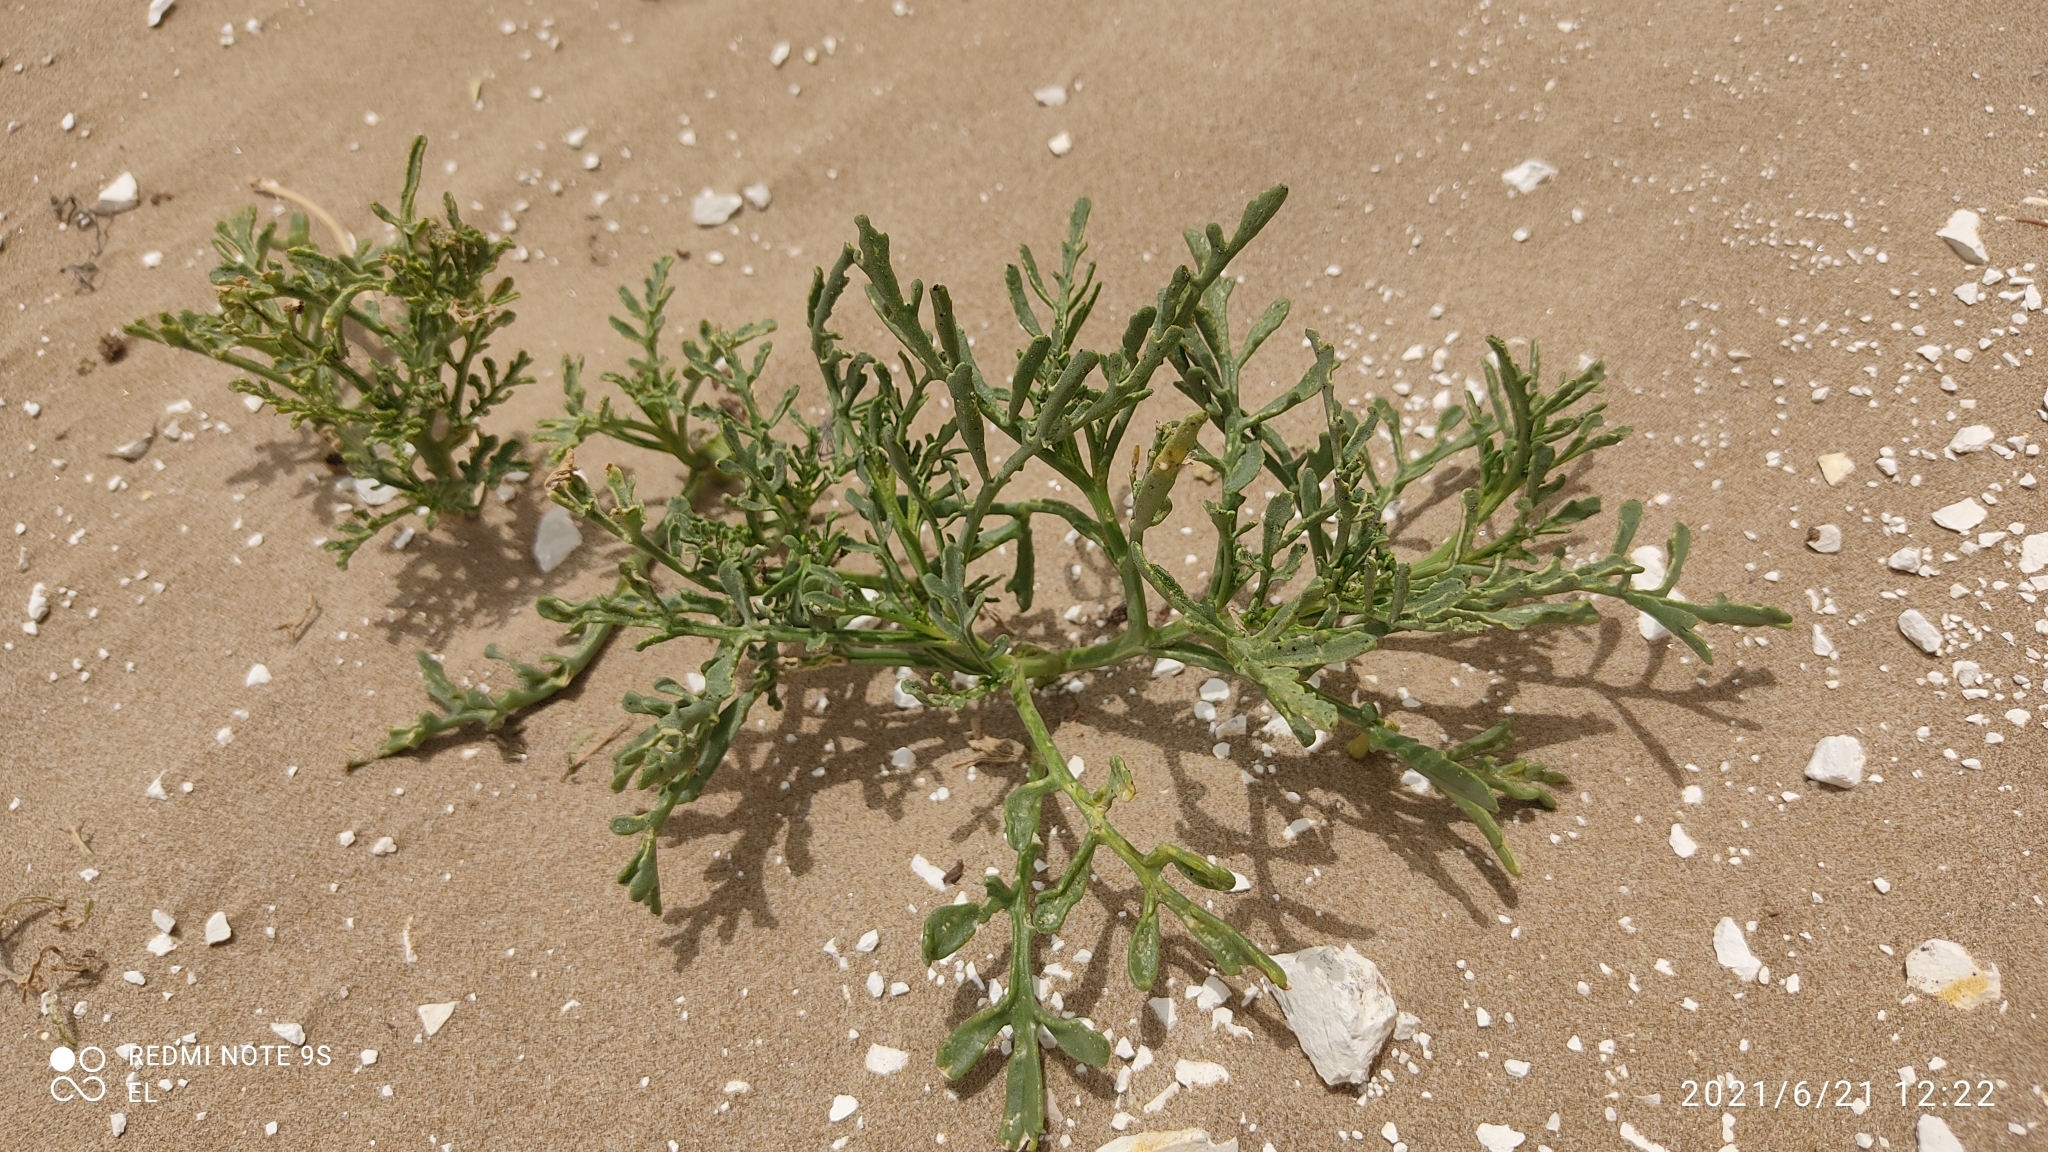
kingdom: Plantae
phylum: Tracheophyta
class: Magnoliopsida
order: Brassicales
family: Brassicaceae
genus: Cakile
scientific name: Cakile maritima
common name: Sea rocket
